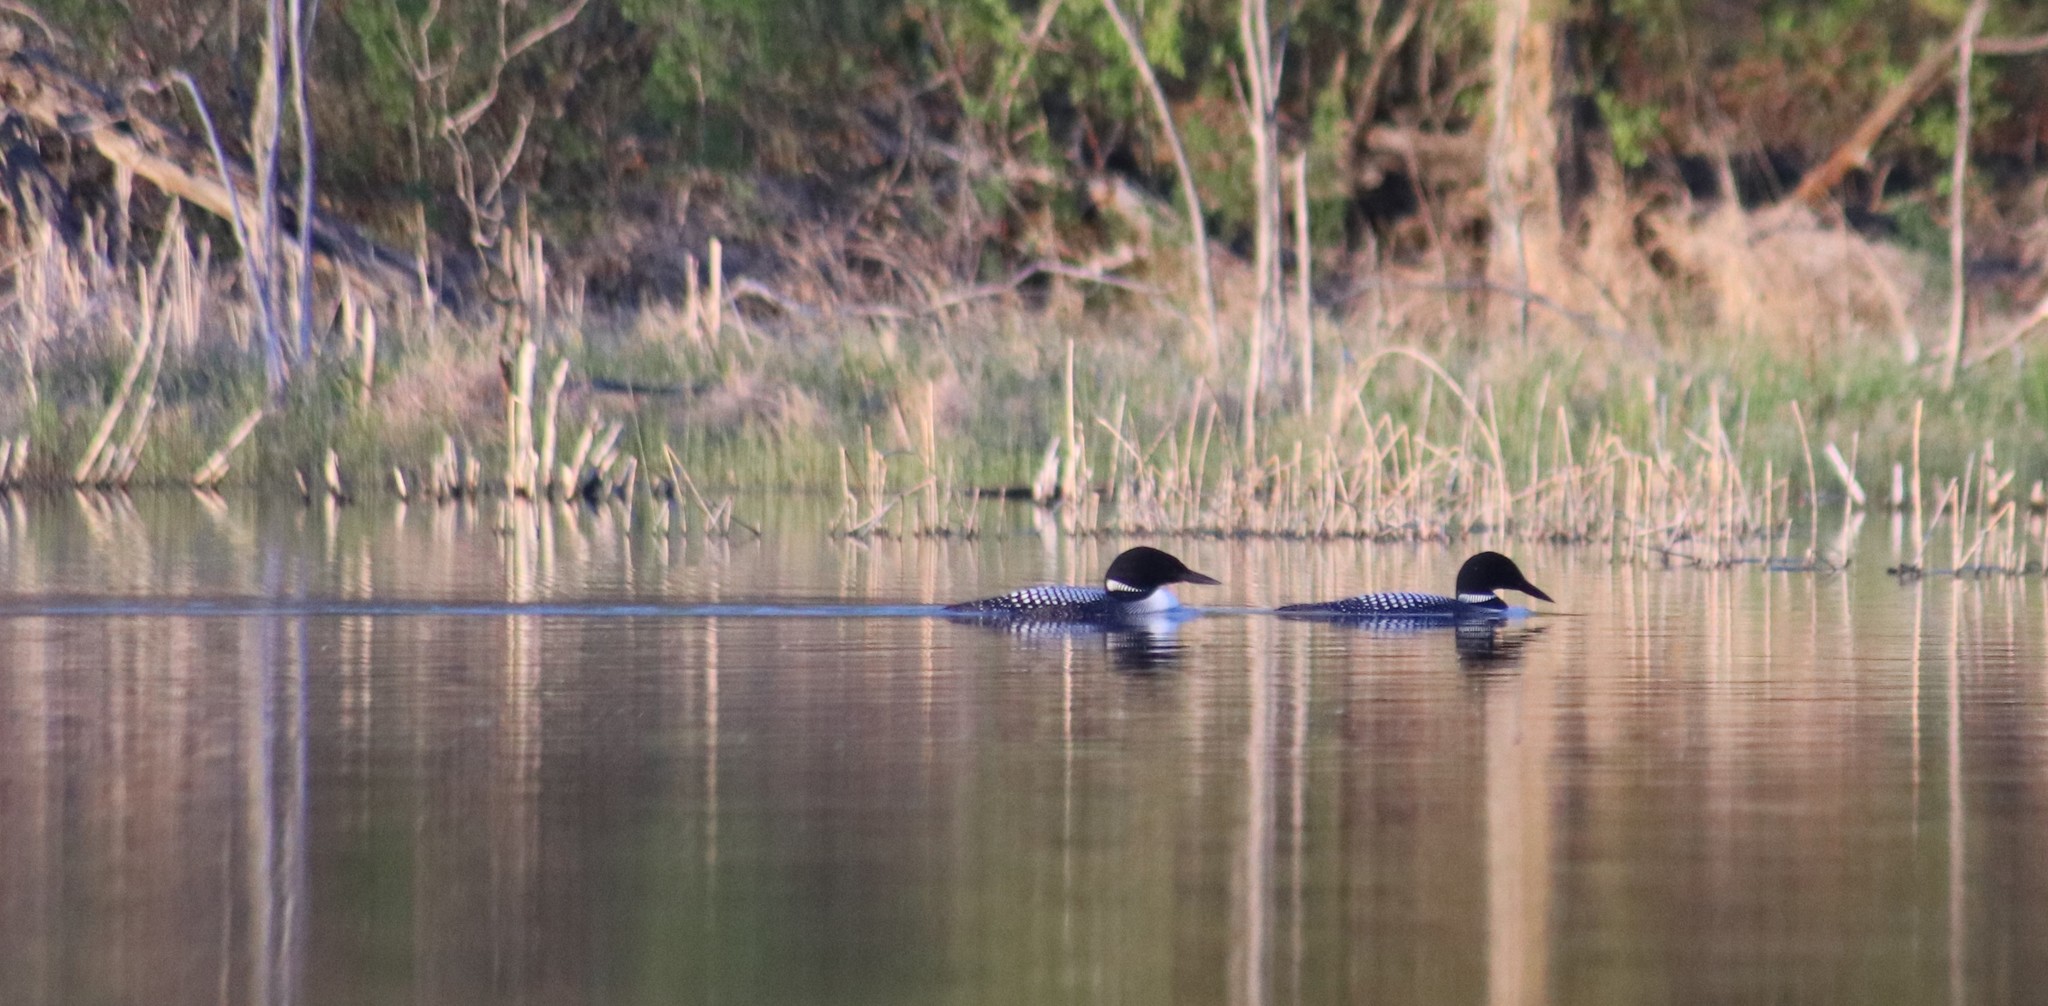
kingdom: Animalia
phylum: Chordata
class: Aves
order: Gaviiformes
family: Gaviidae
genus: Gavia
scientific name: Gavia immer
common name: Common loon
